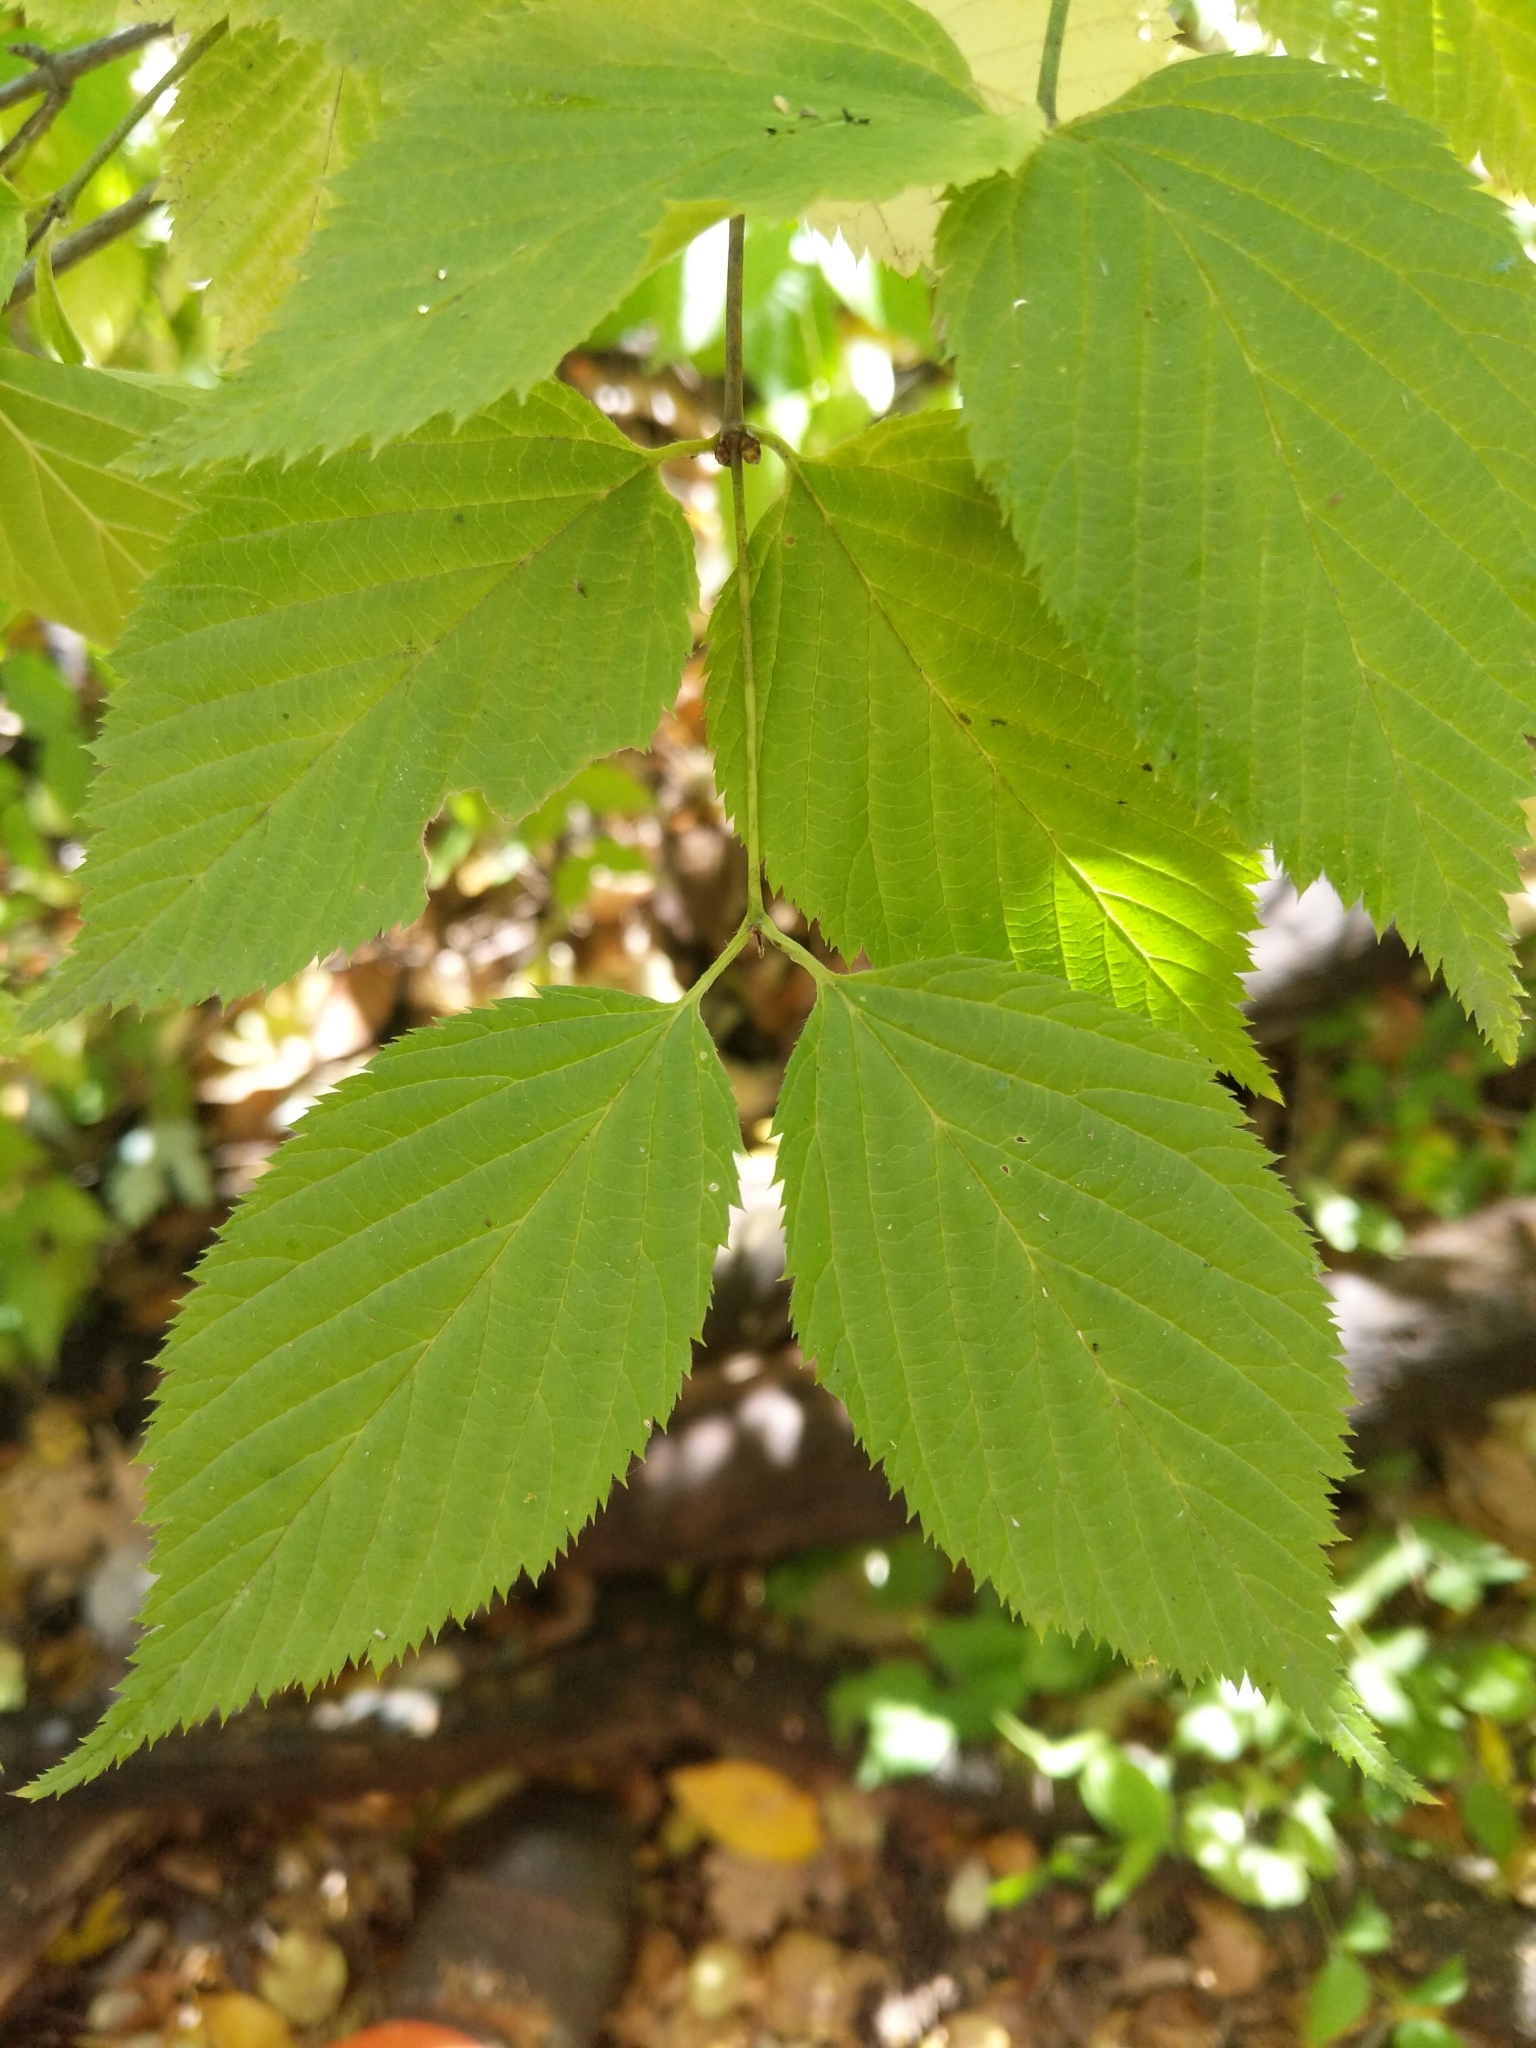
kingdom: Plantae
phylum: Tracheophyta
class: Magnoliopsida
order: Rosales
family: Rosaceae
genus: Rhodotypos
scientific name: Rhodotypos scandens
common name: Jetbead
